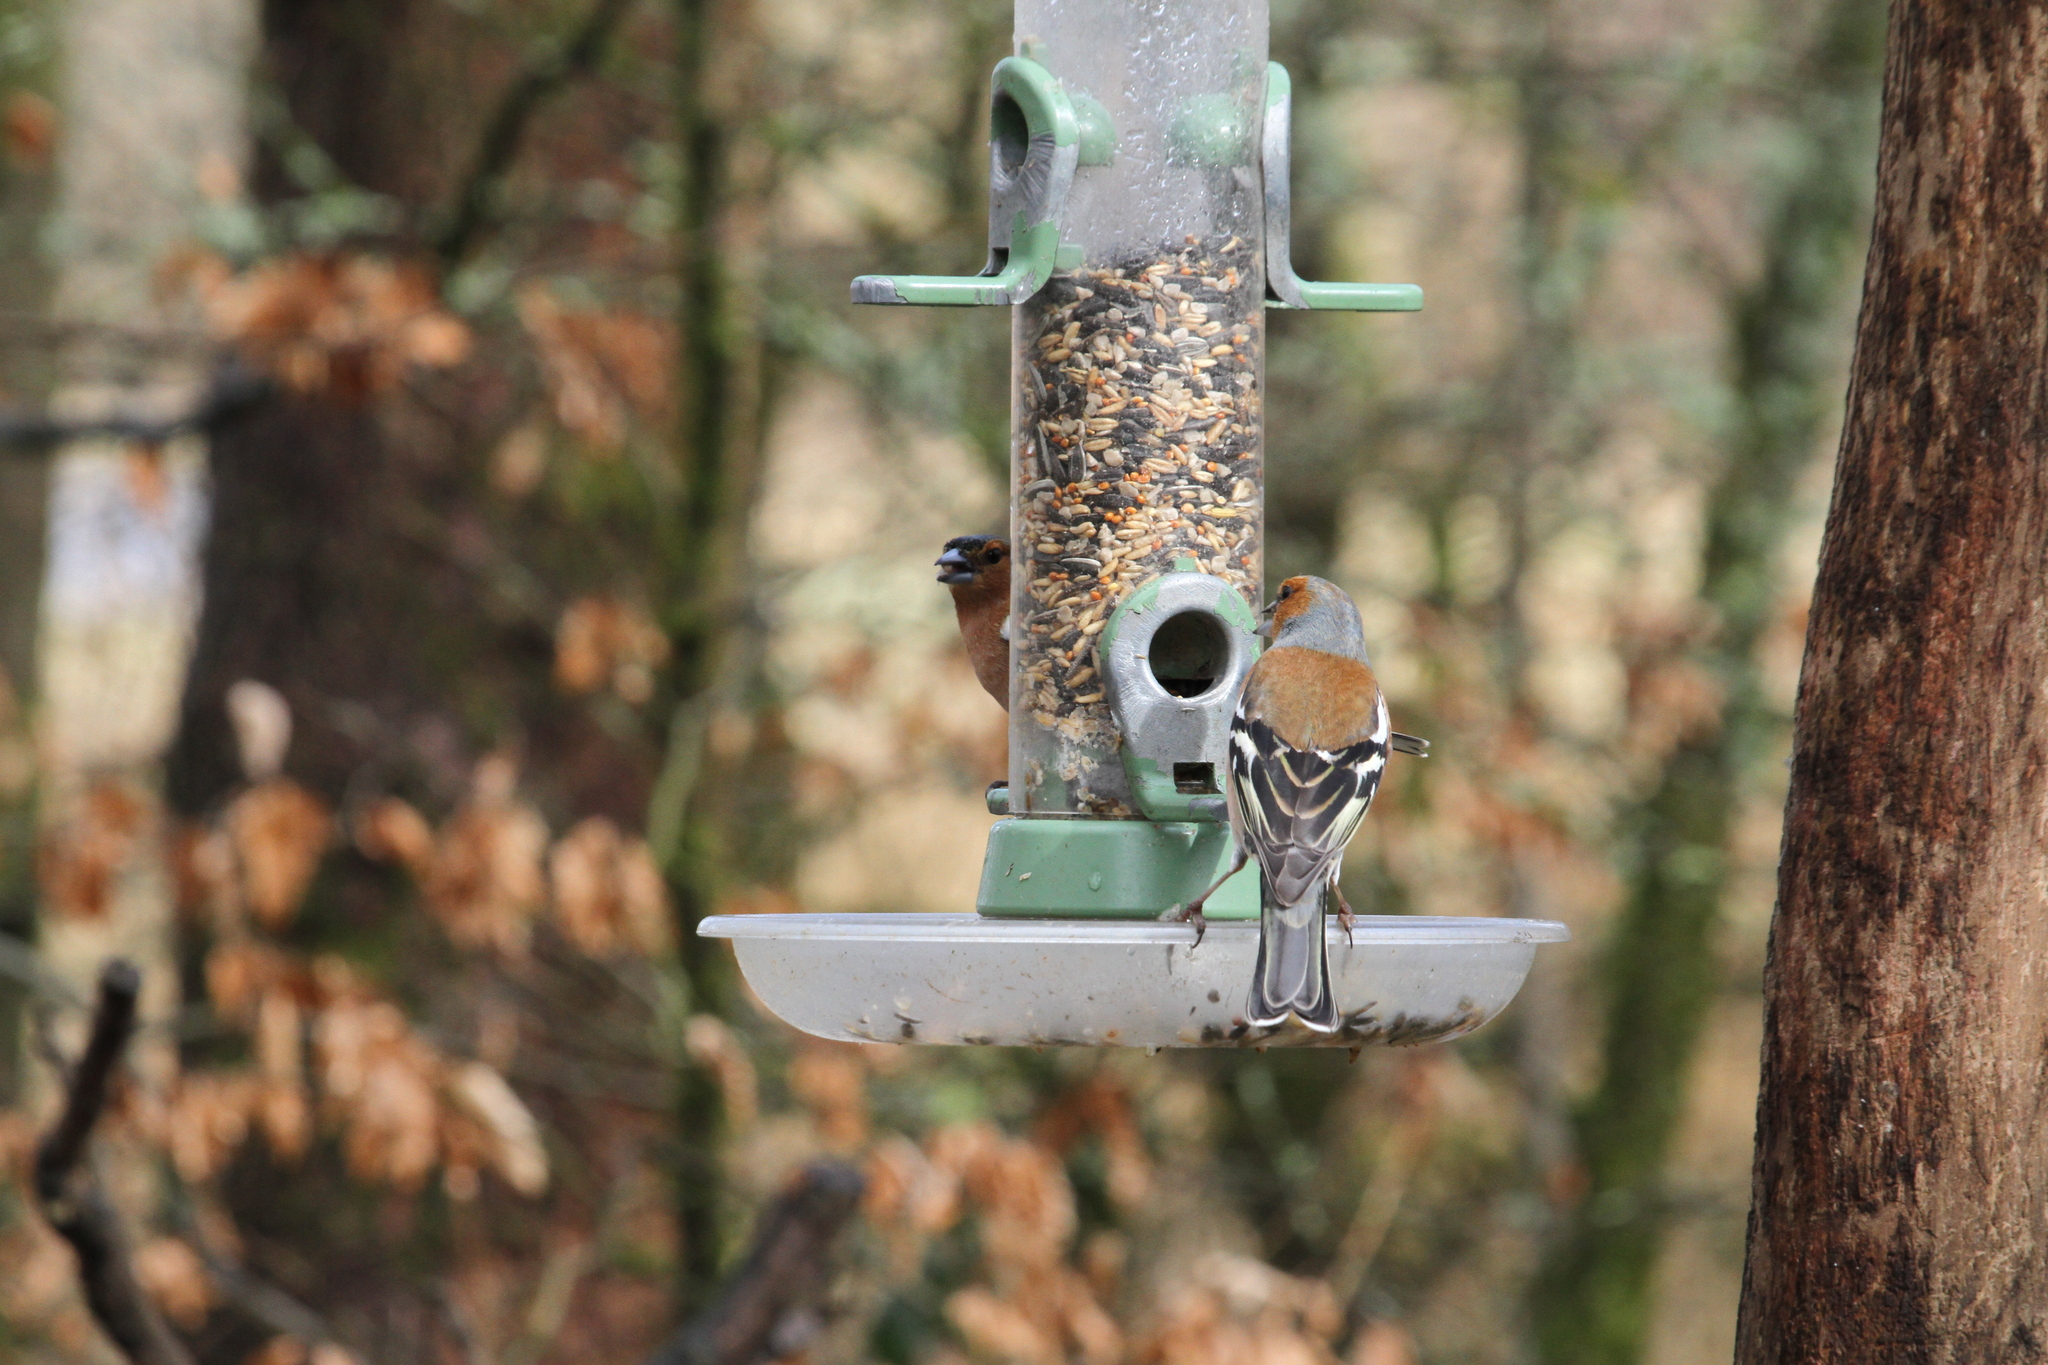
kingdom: Animalia
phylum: Chordata
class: Aves
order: Passeriformes
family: Fringillidae
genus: Fringilla
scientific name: Fringilla coelebs
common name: Common chaffinch
